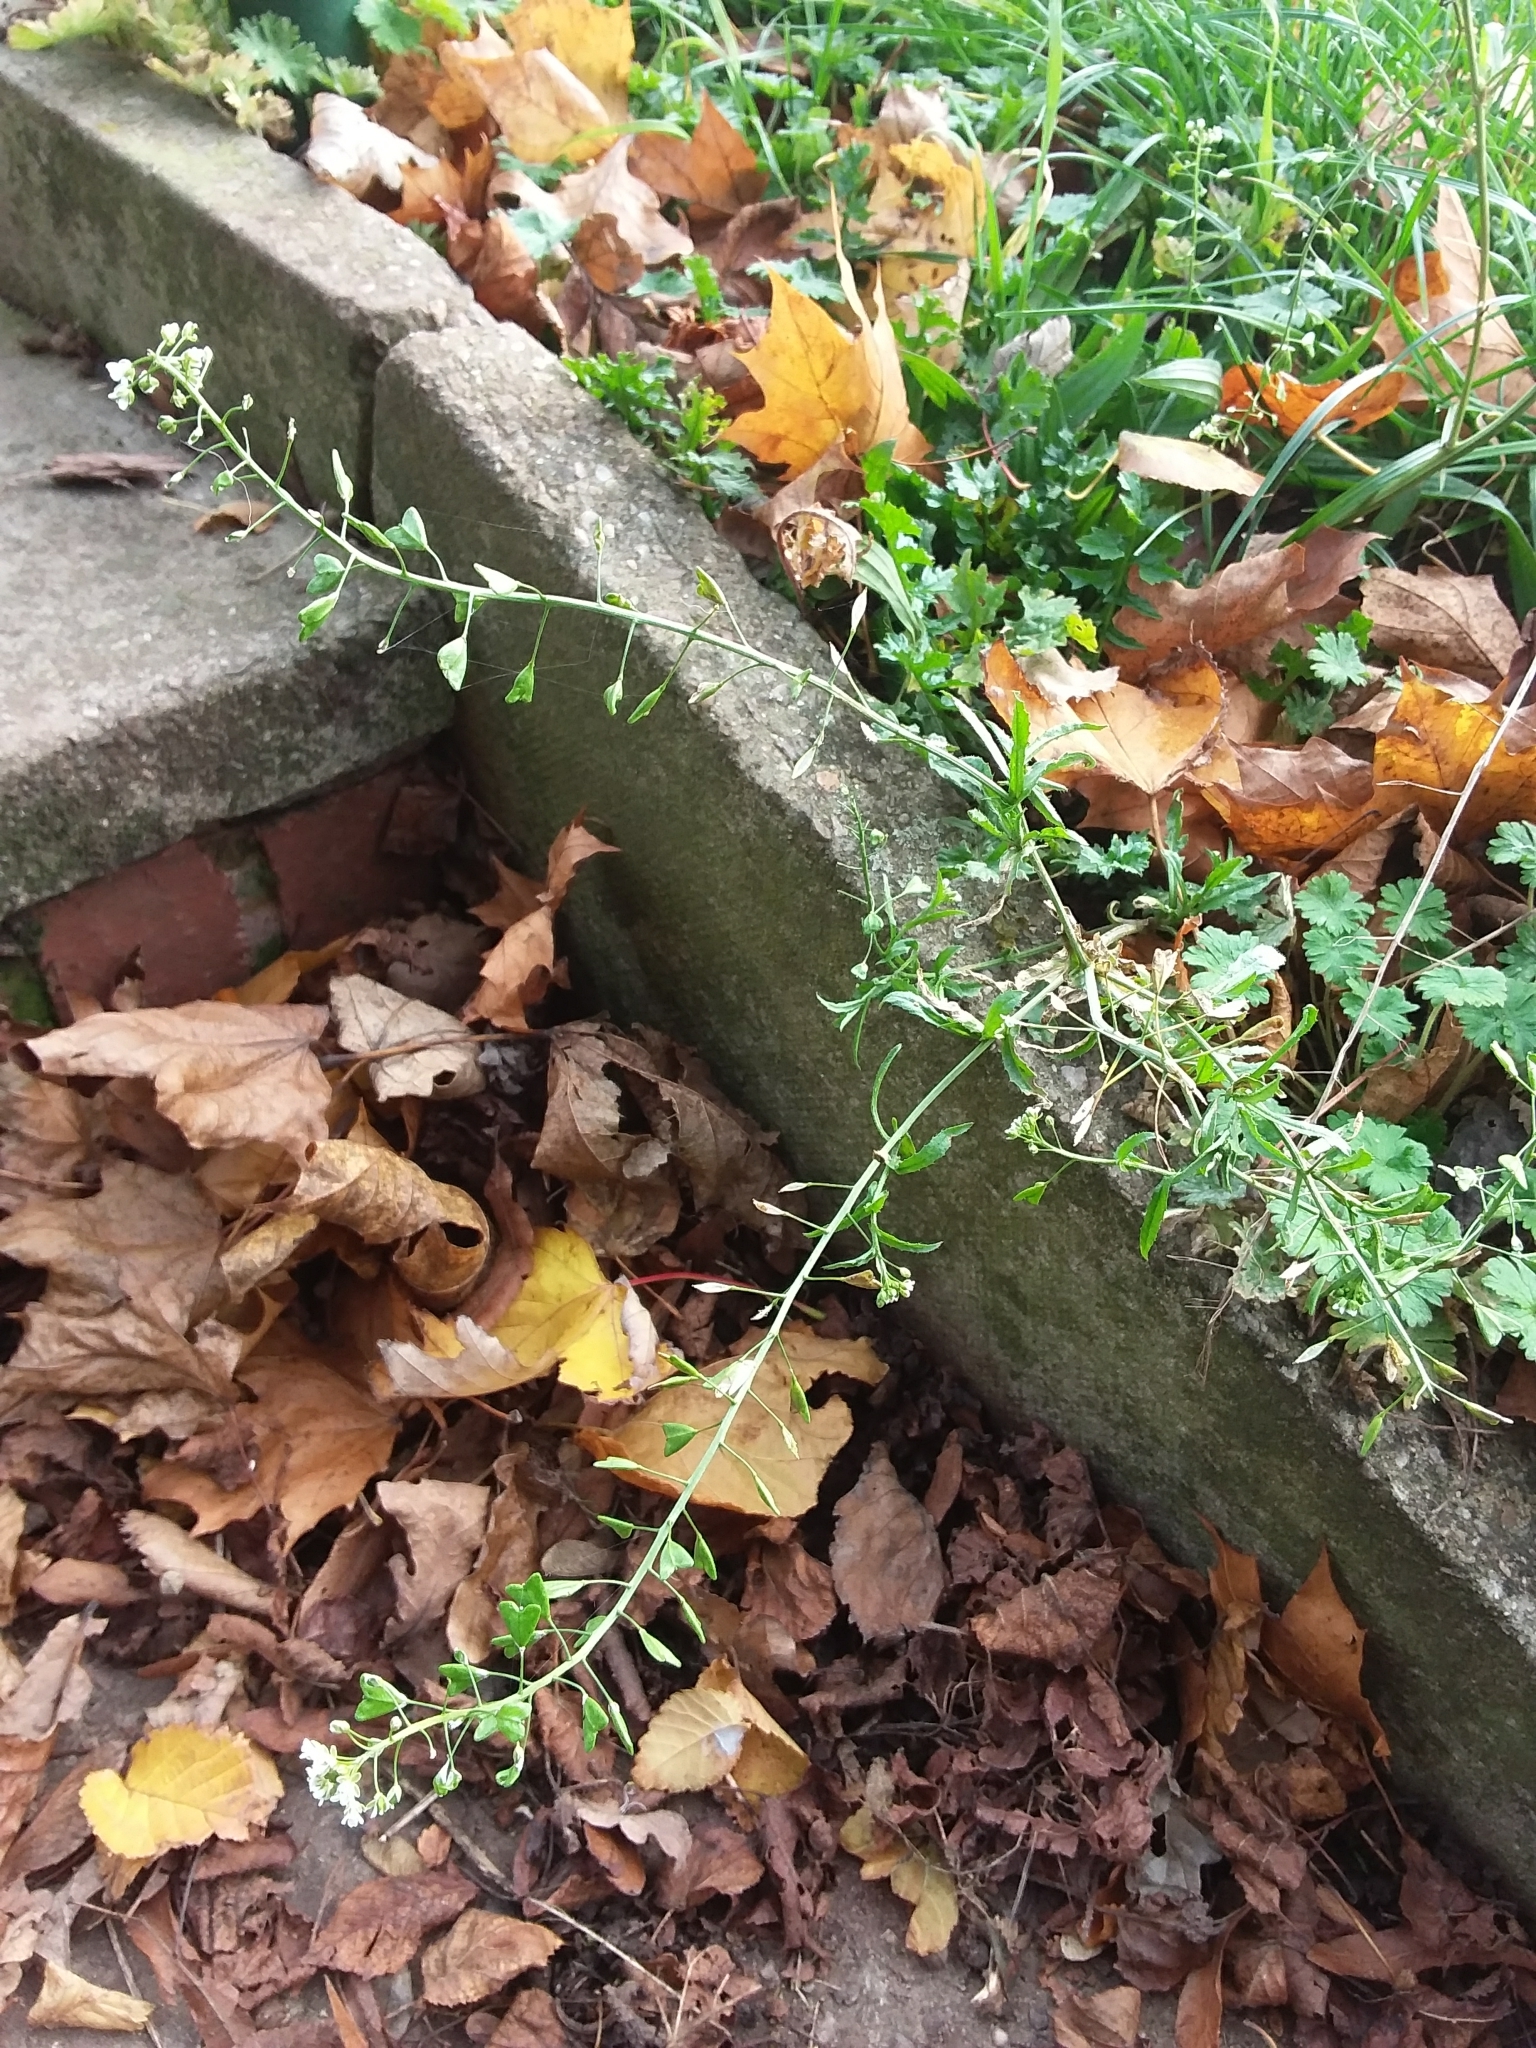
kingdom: Plantae
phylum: Tracheophyta
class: Magnoliopsida
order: Brassicales
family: Brassicaceae
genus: Capsella
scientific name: Capsella bursa-pastoris
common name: Shepherd's purse
